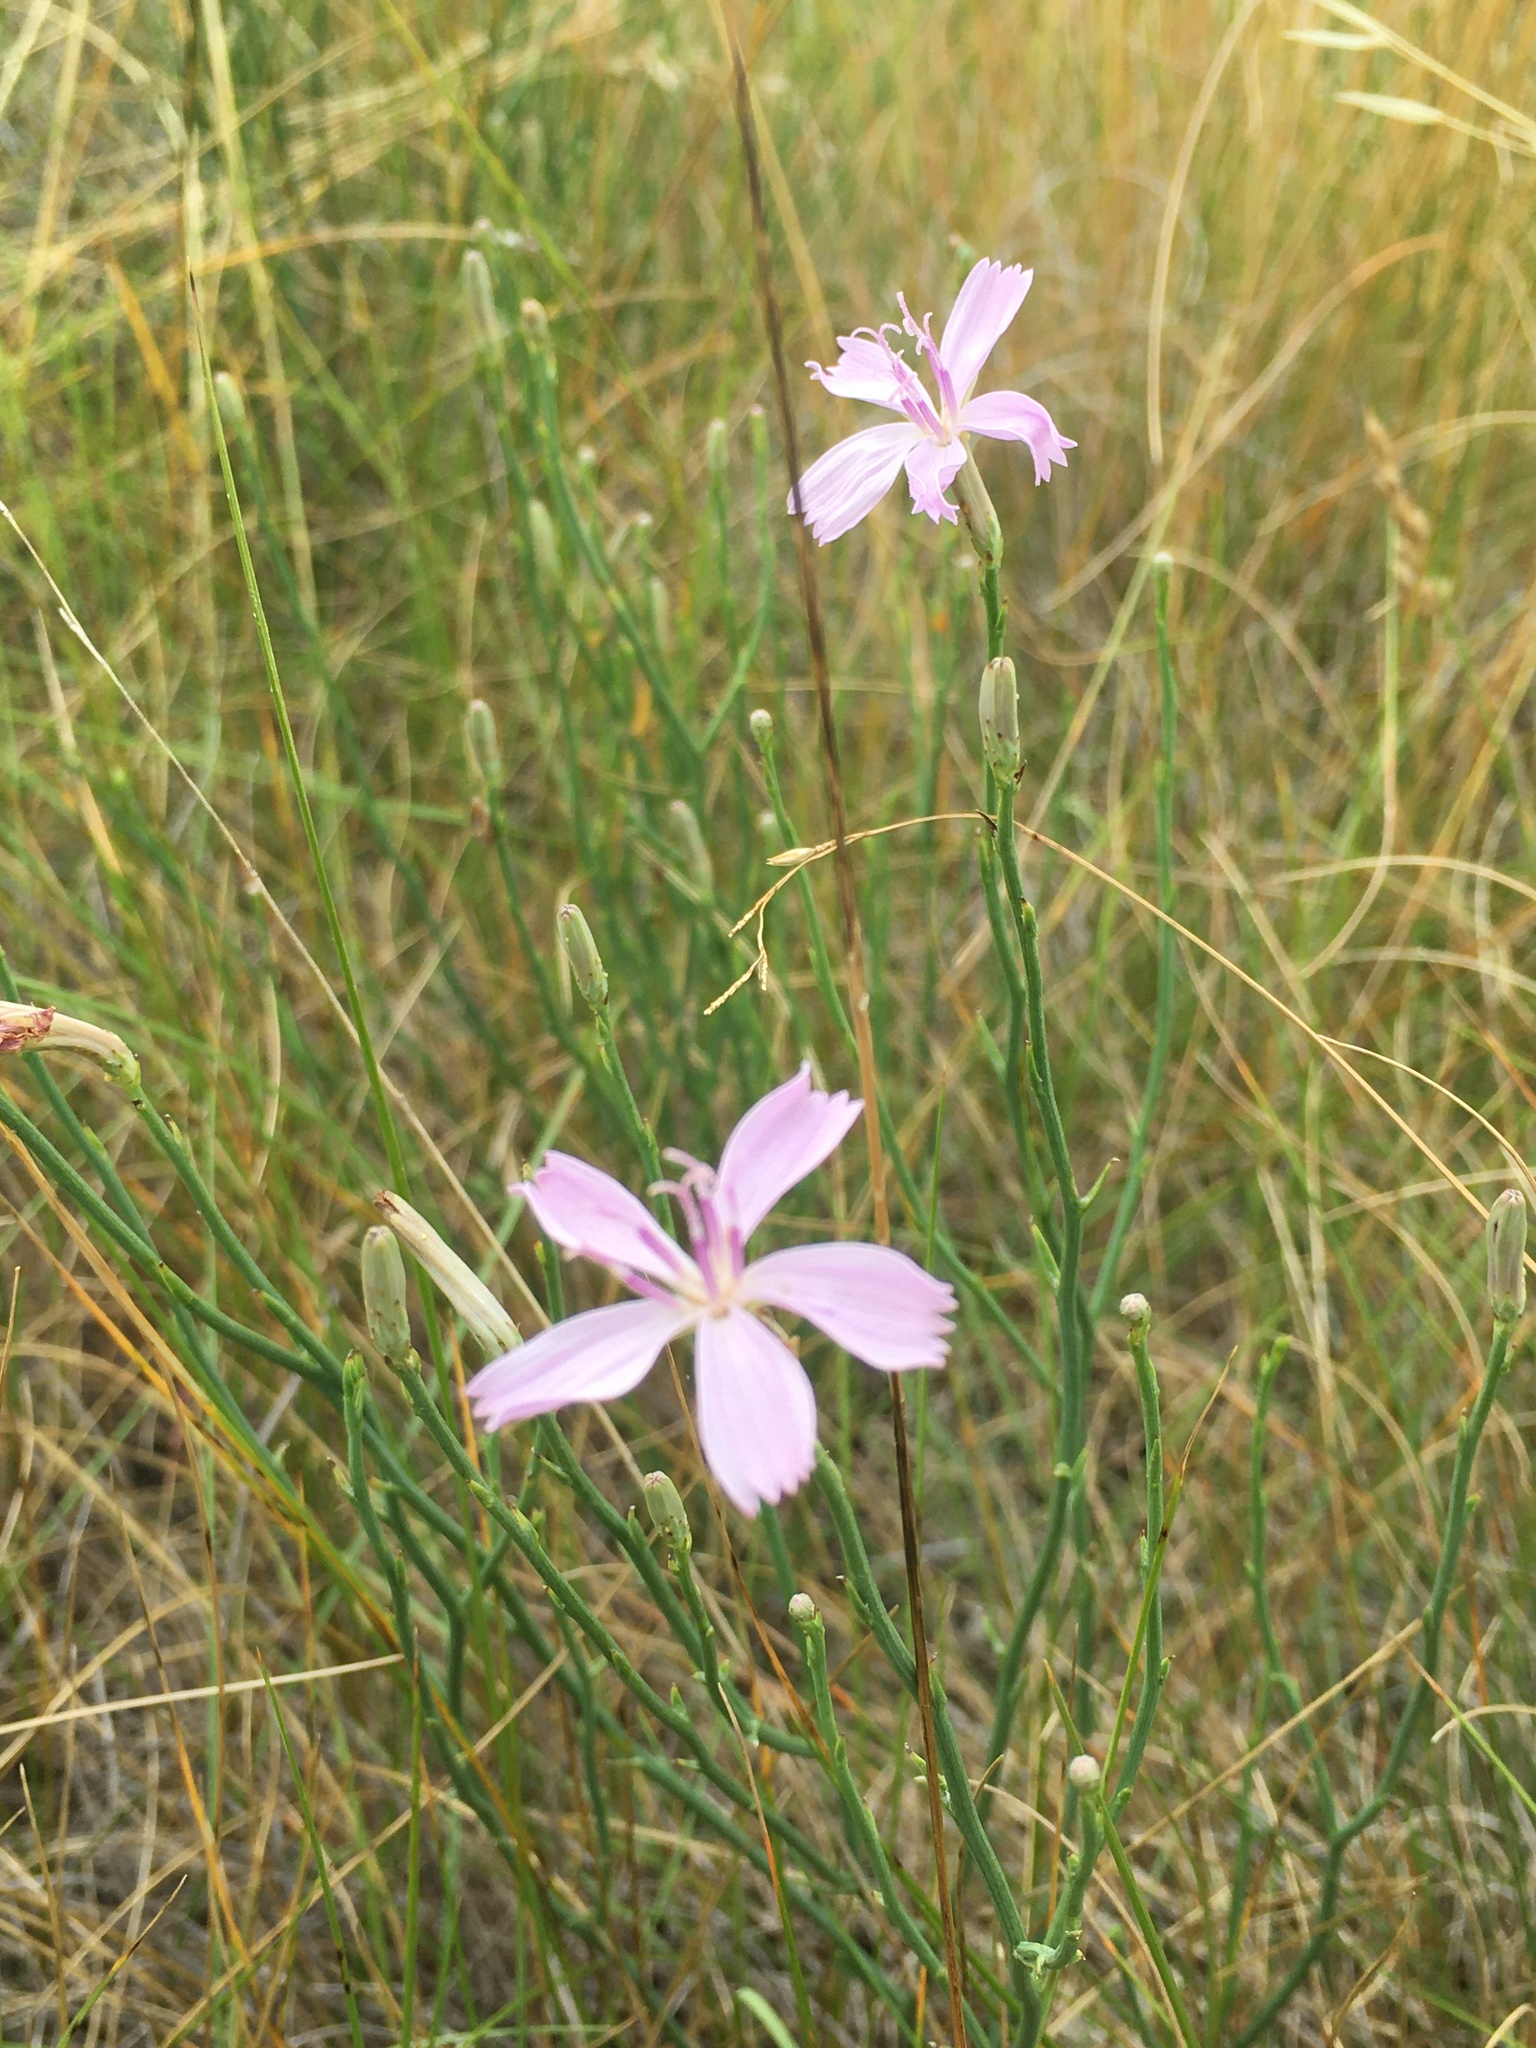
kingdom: Plantae
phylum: Tracheophyta
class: Magnoliopsida
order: Asterales
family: Asteraceae
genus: Lygodesmia
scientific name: Lygodesmia juncea
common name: Common skeletonweed
